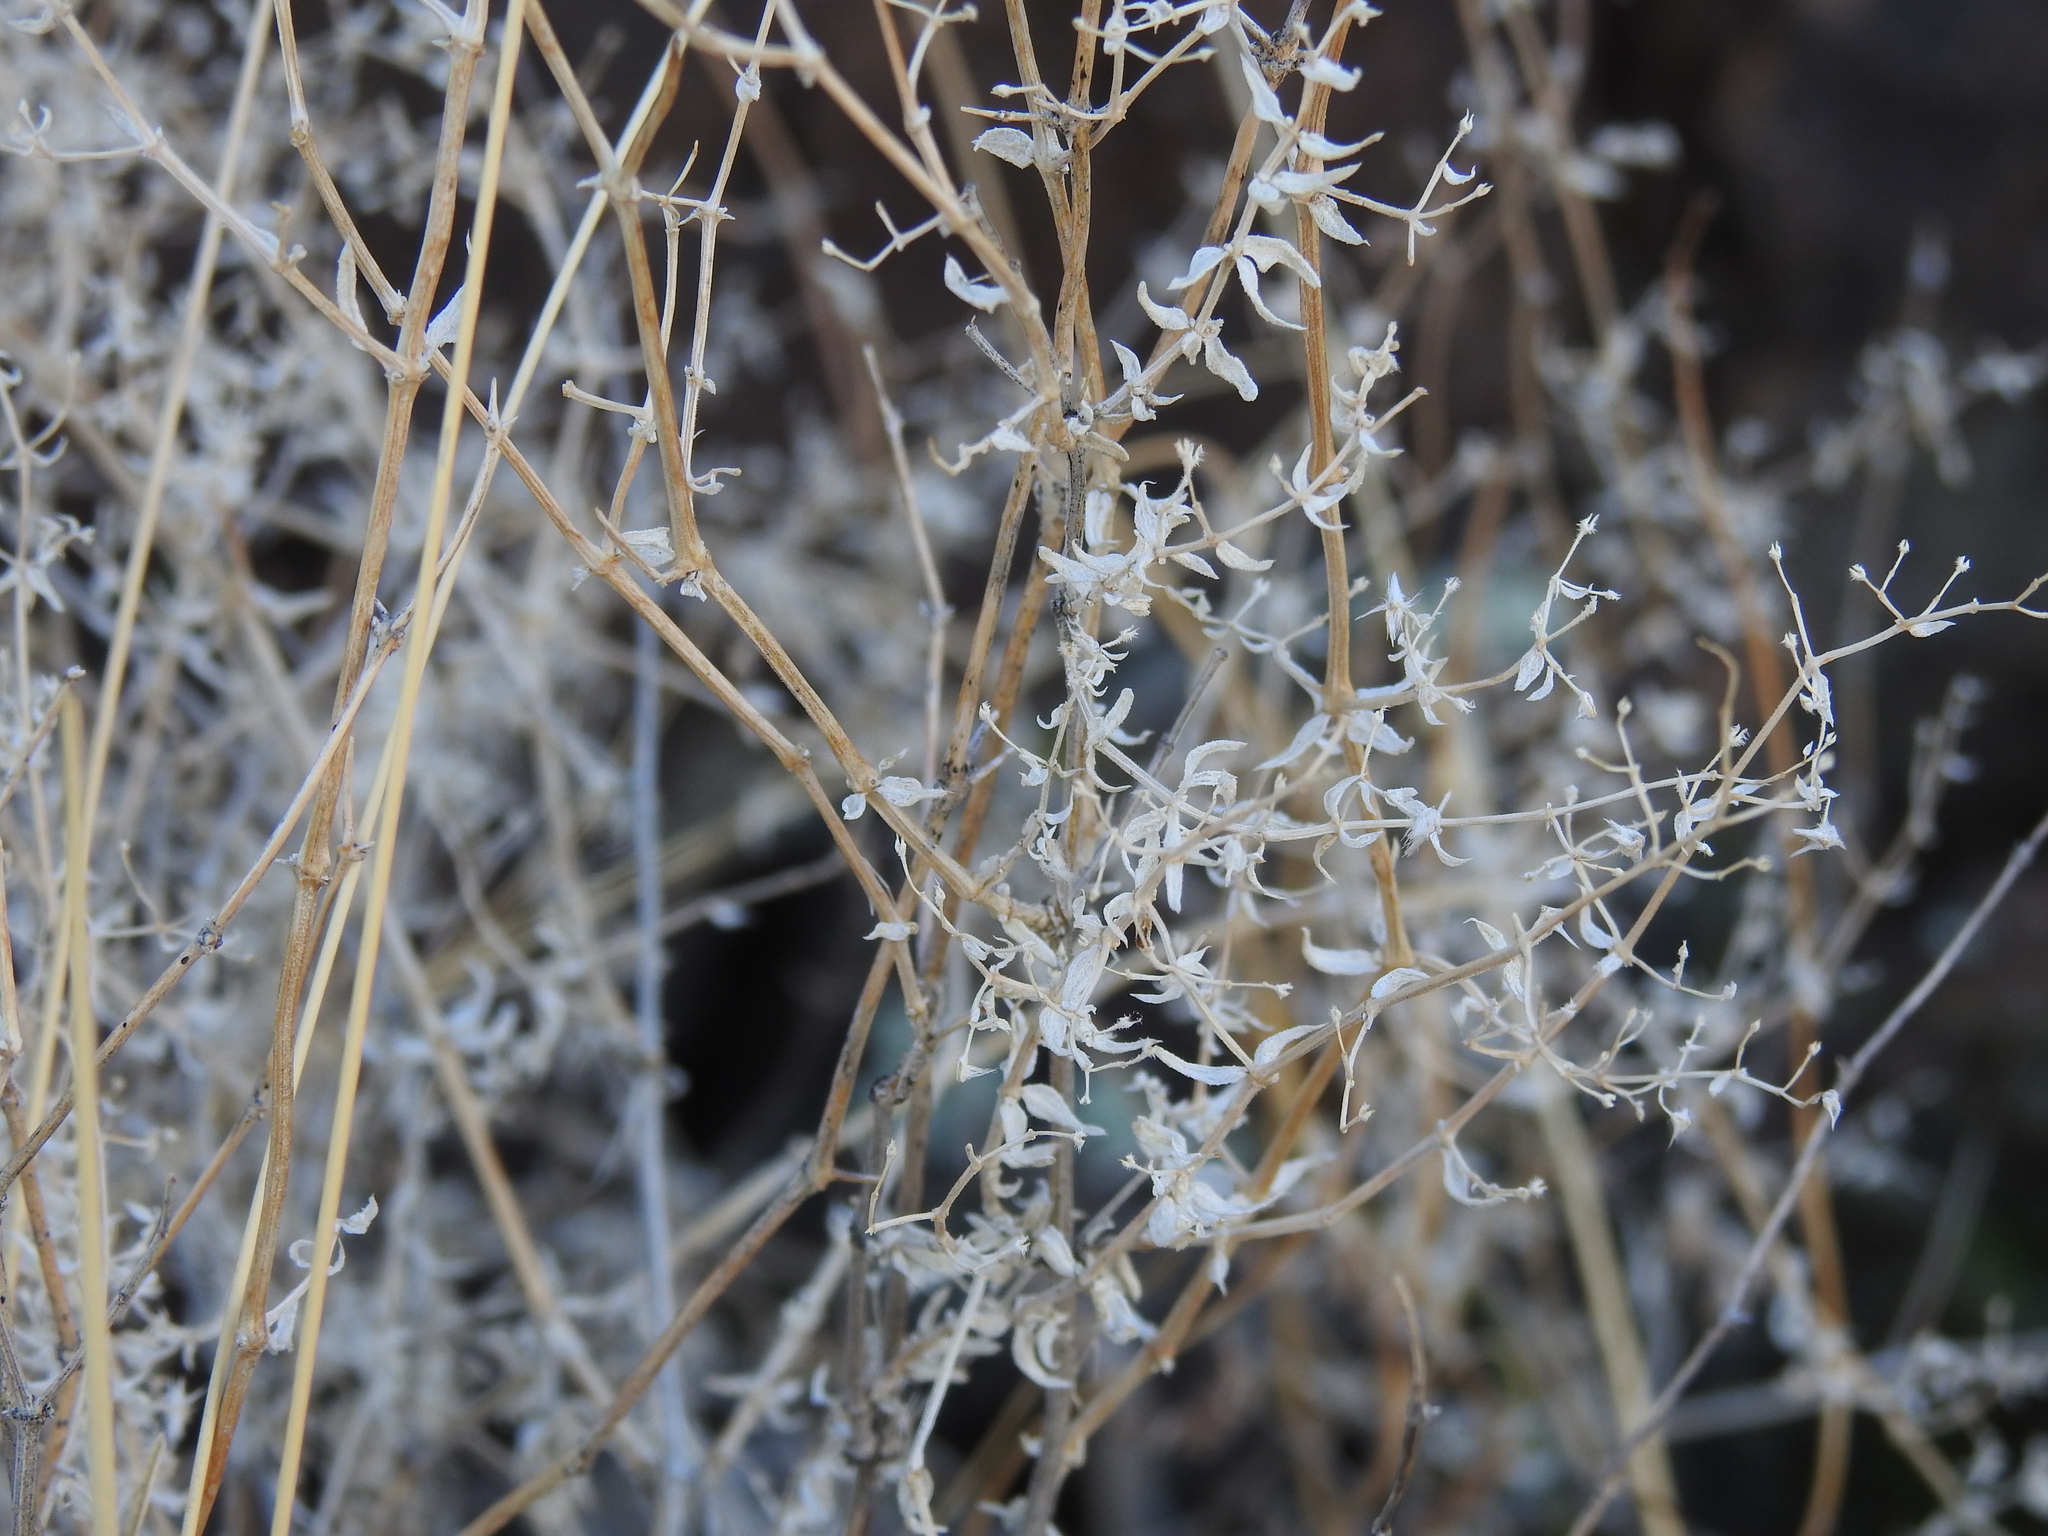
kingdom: Plantae
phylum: Tracheophyta
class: Magnoliopsida
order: Gentianales
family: Rubiaceae
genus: Galium
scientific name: Galium stellatum
